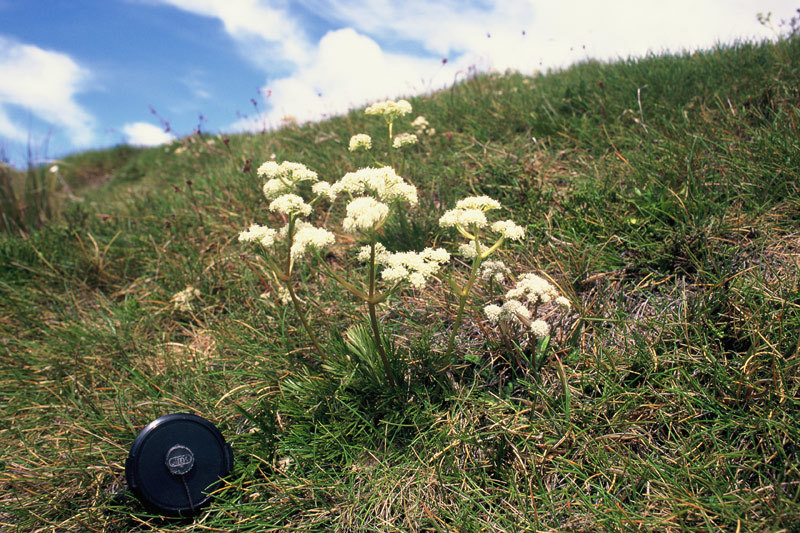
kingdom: Plantae
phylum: Tracheophyta
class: Magnoliopsida
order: Apiales
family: Apiaceae
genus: Aciphylla
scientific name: Aciphylla polita
